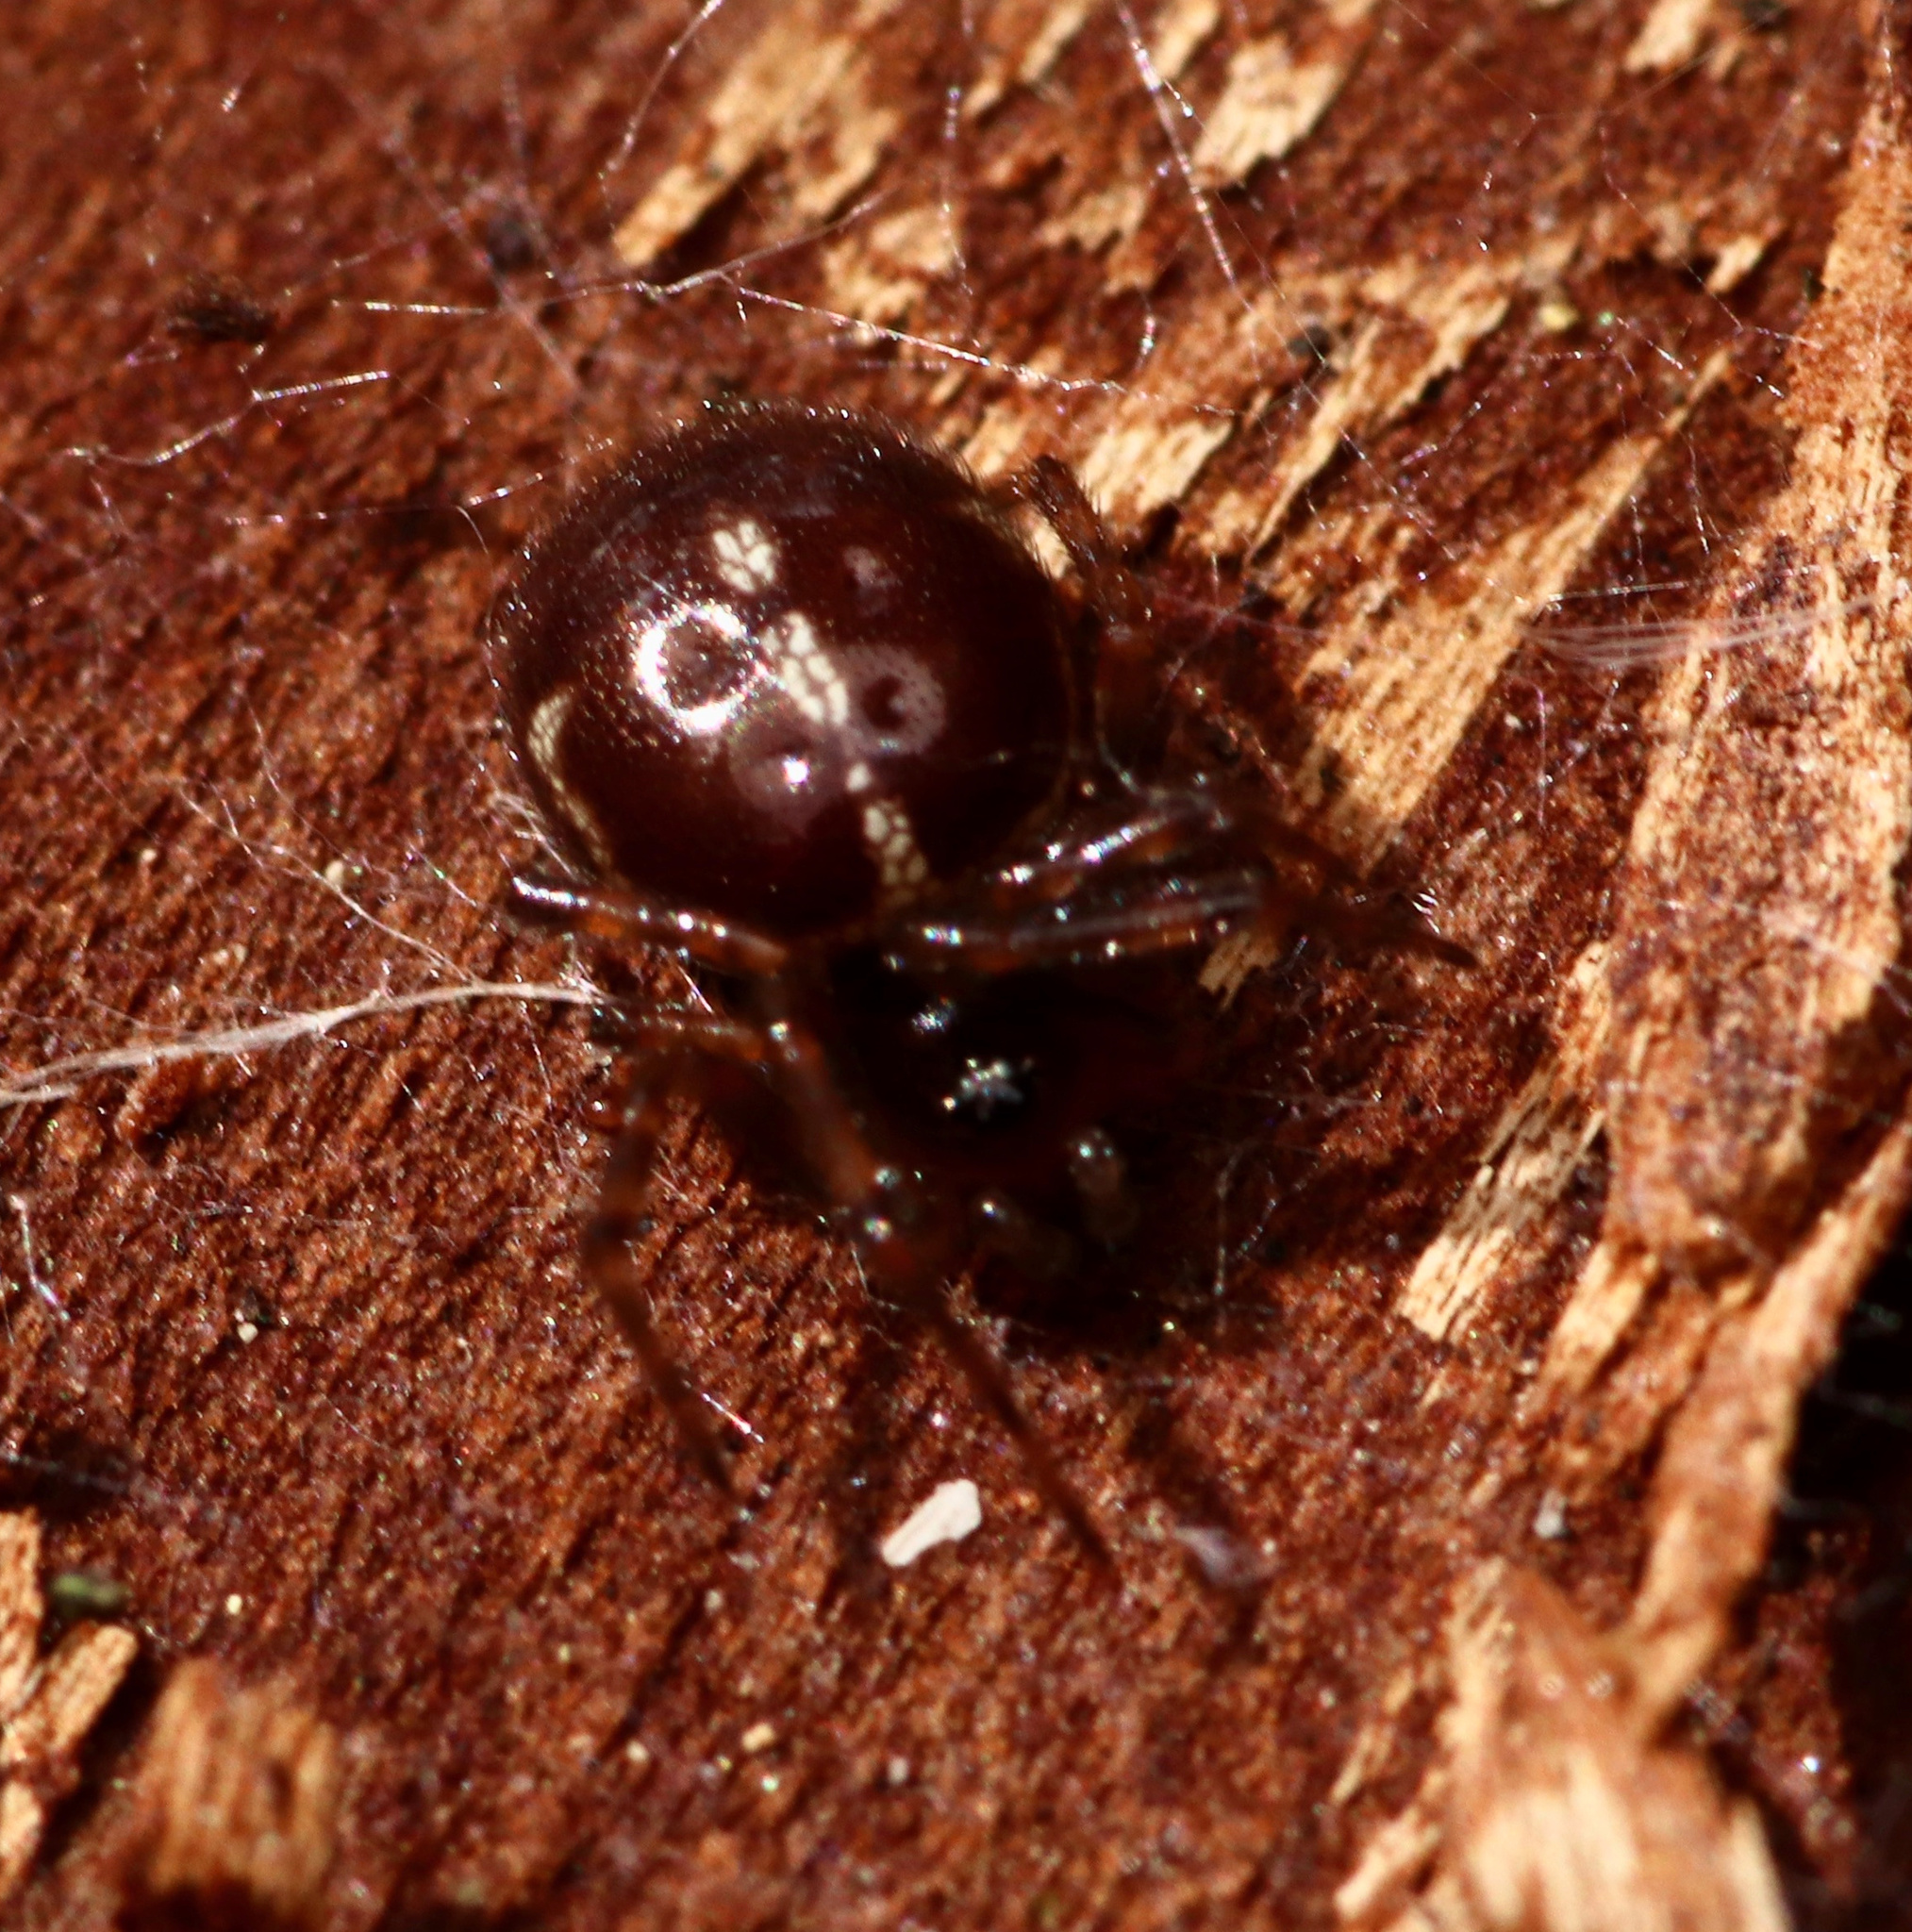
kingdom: Animalia
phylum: Arthropoda
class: Arachnida
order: Araneae
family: Theridiidae
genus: Steatoda
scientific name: Steatoda borealis
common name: Boreal combfoot
